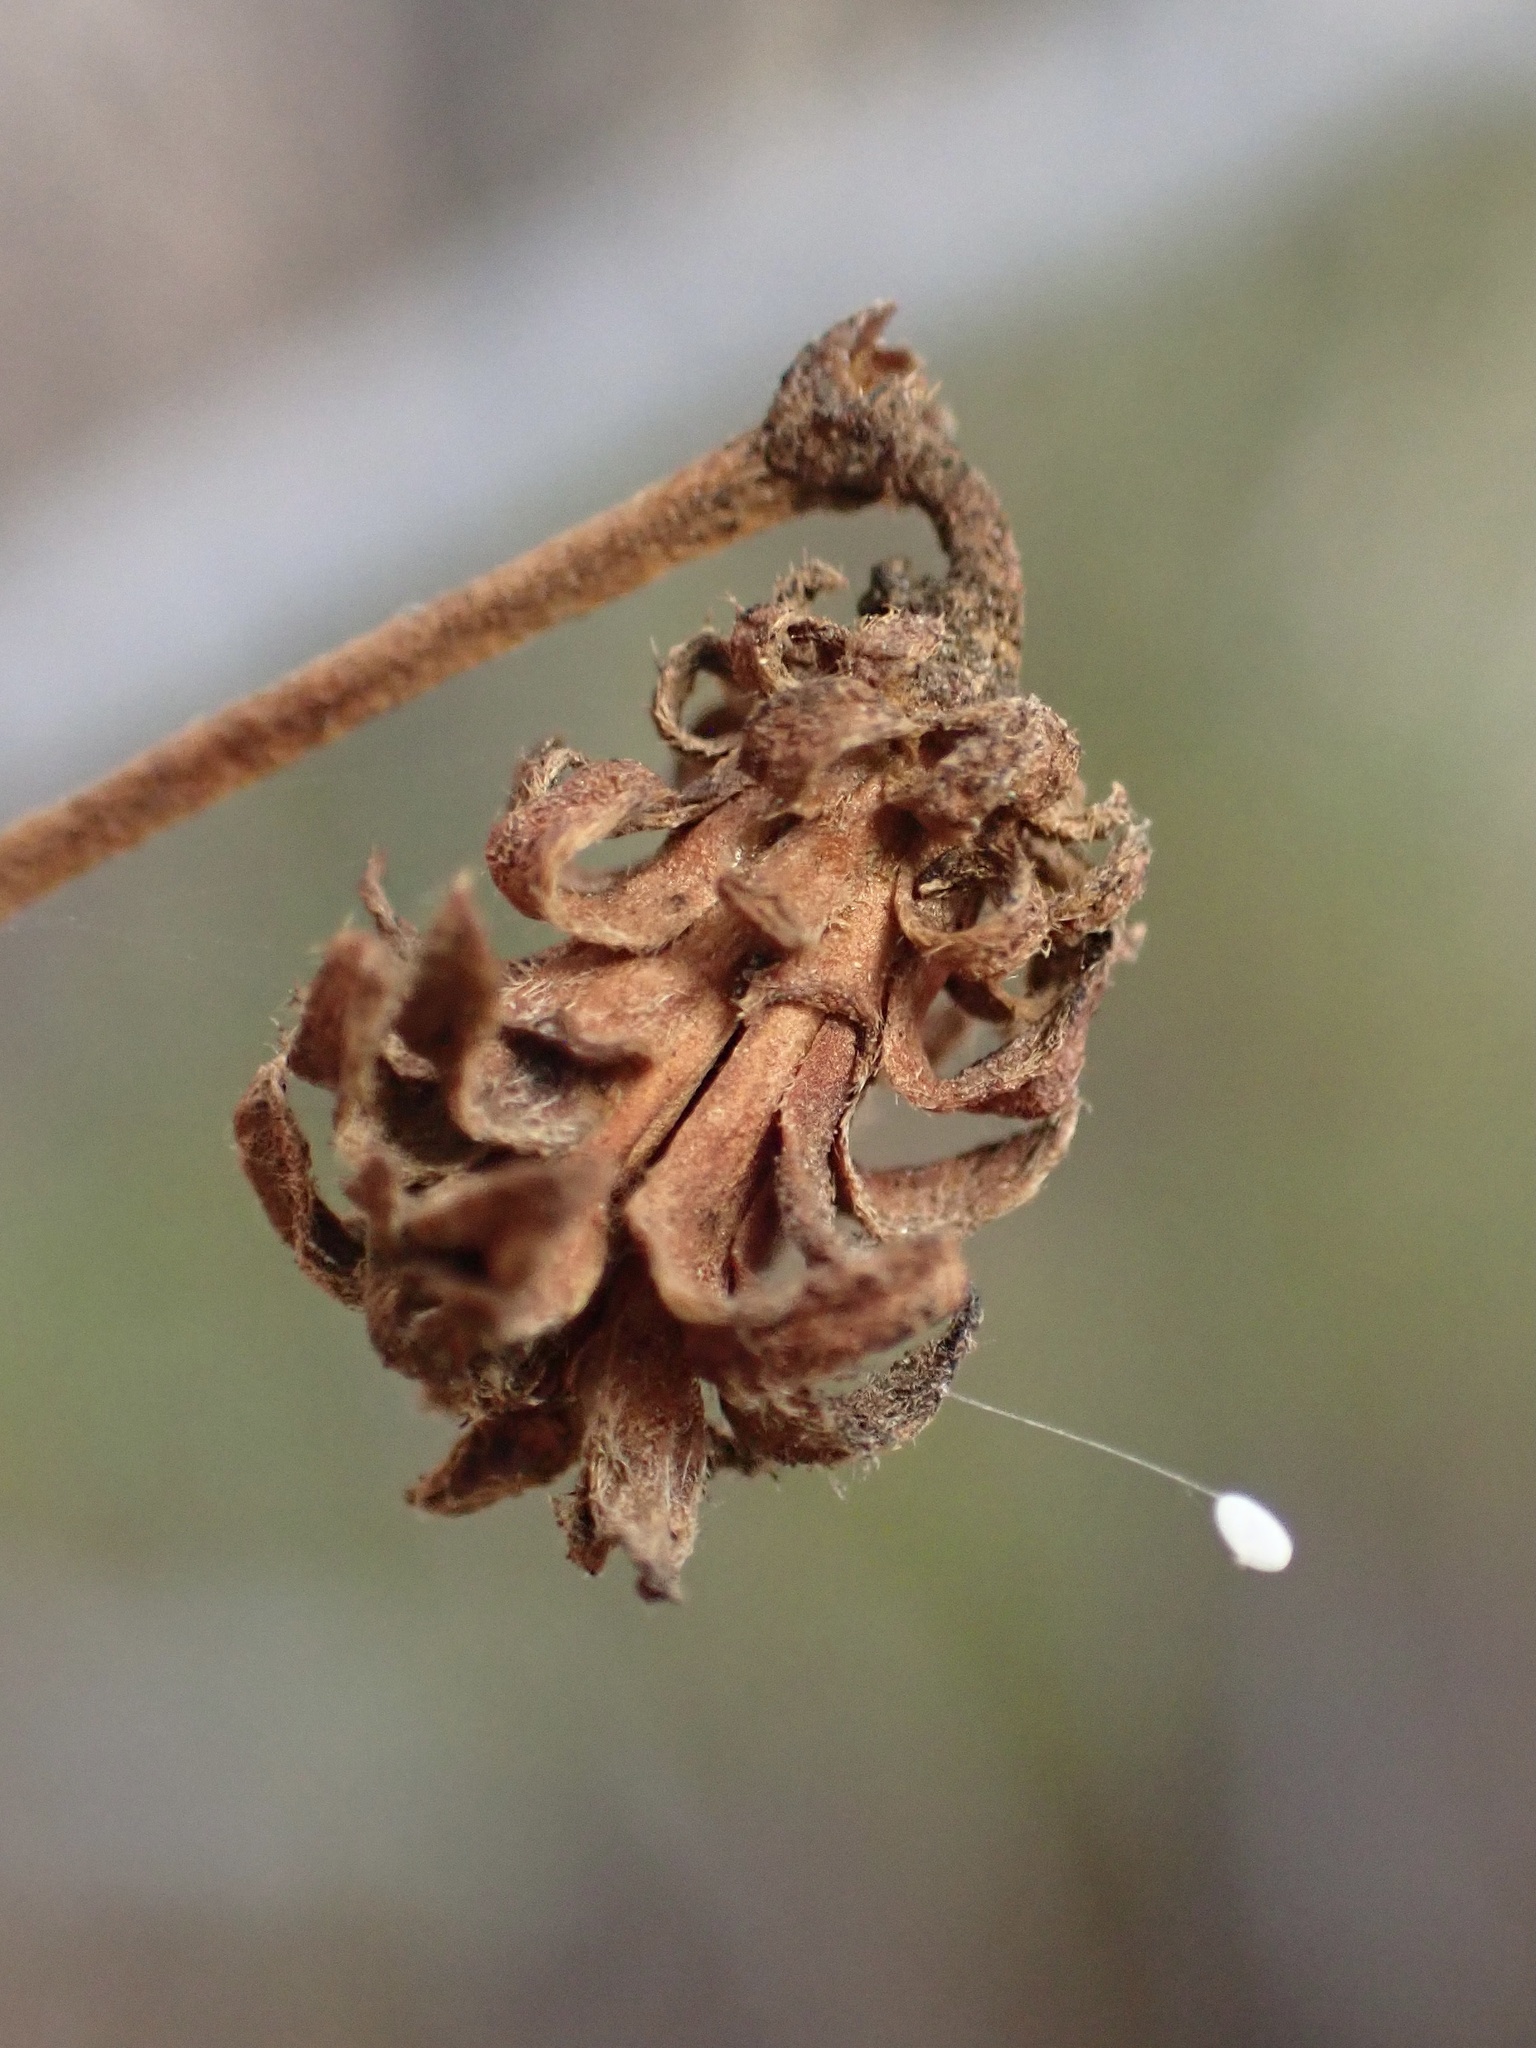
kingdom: Animalia
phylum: Arthropoda
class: Insecta
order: Diptera
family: Cecidomyiidae
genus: Asphondylia
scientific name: Asphondylia rosetta
